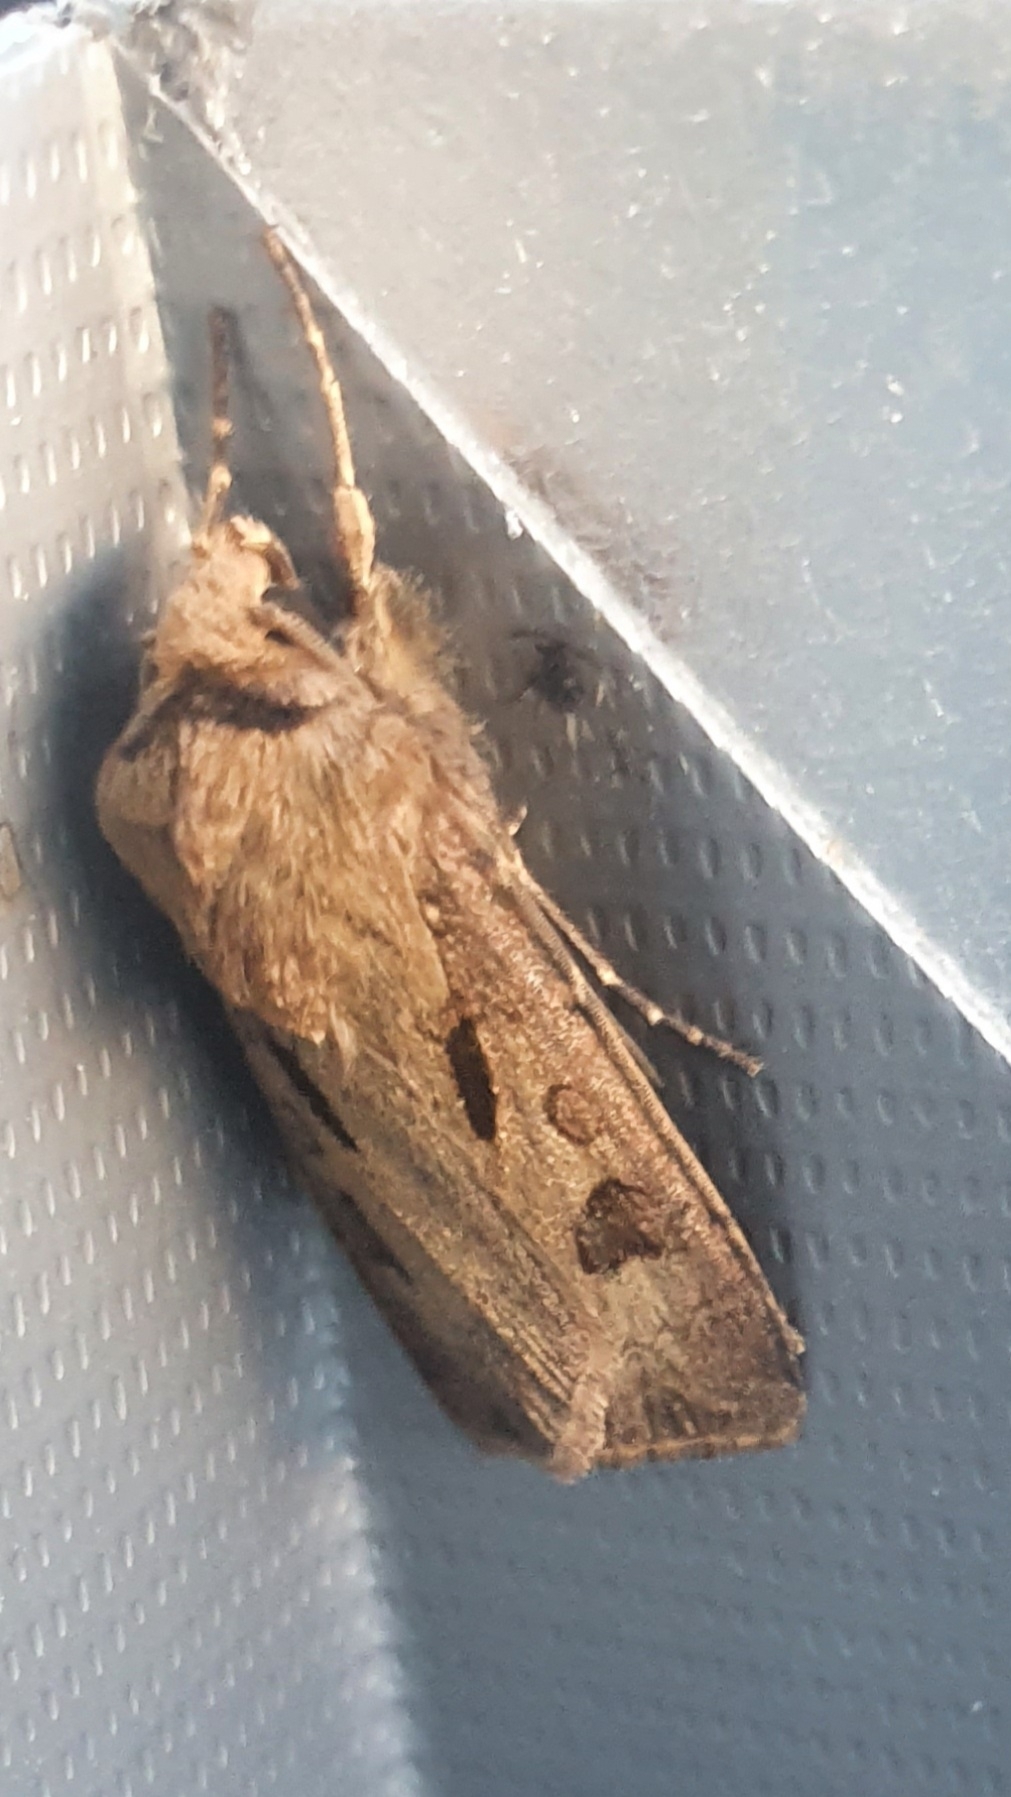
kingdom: Animalia
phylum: Arthropoda
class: Insecta
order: Lepidoptera
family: Noctuidae
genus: Agrotis
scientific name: Agrotis exclamationis
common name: Heart and dart
